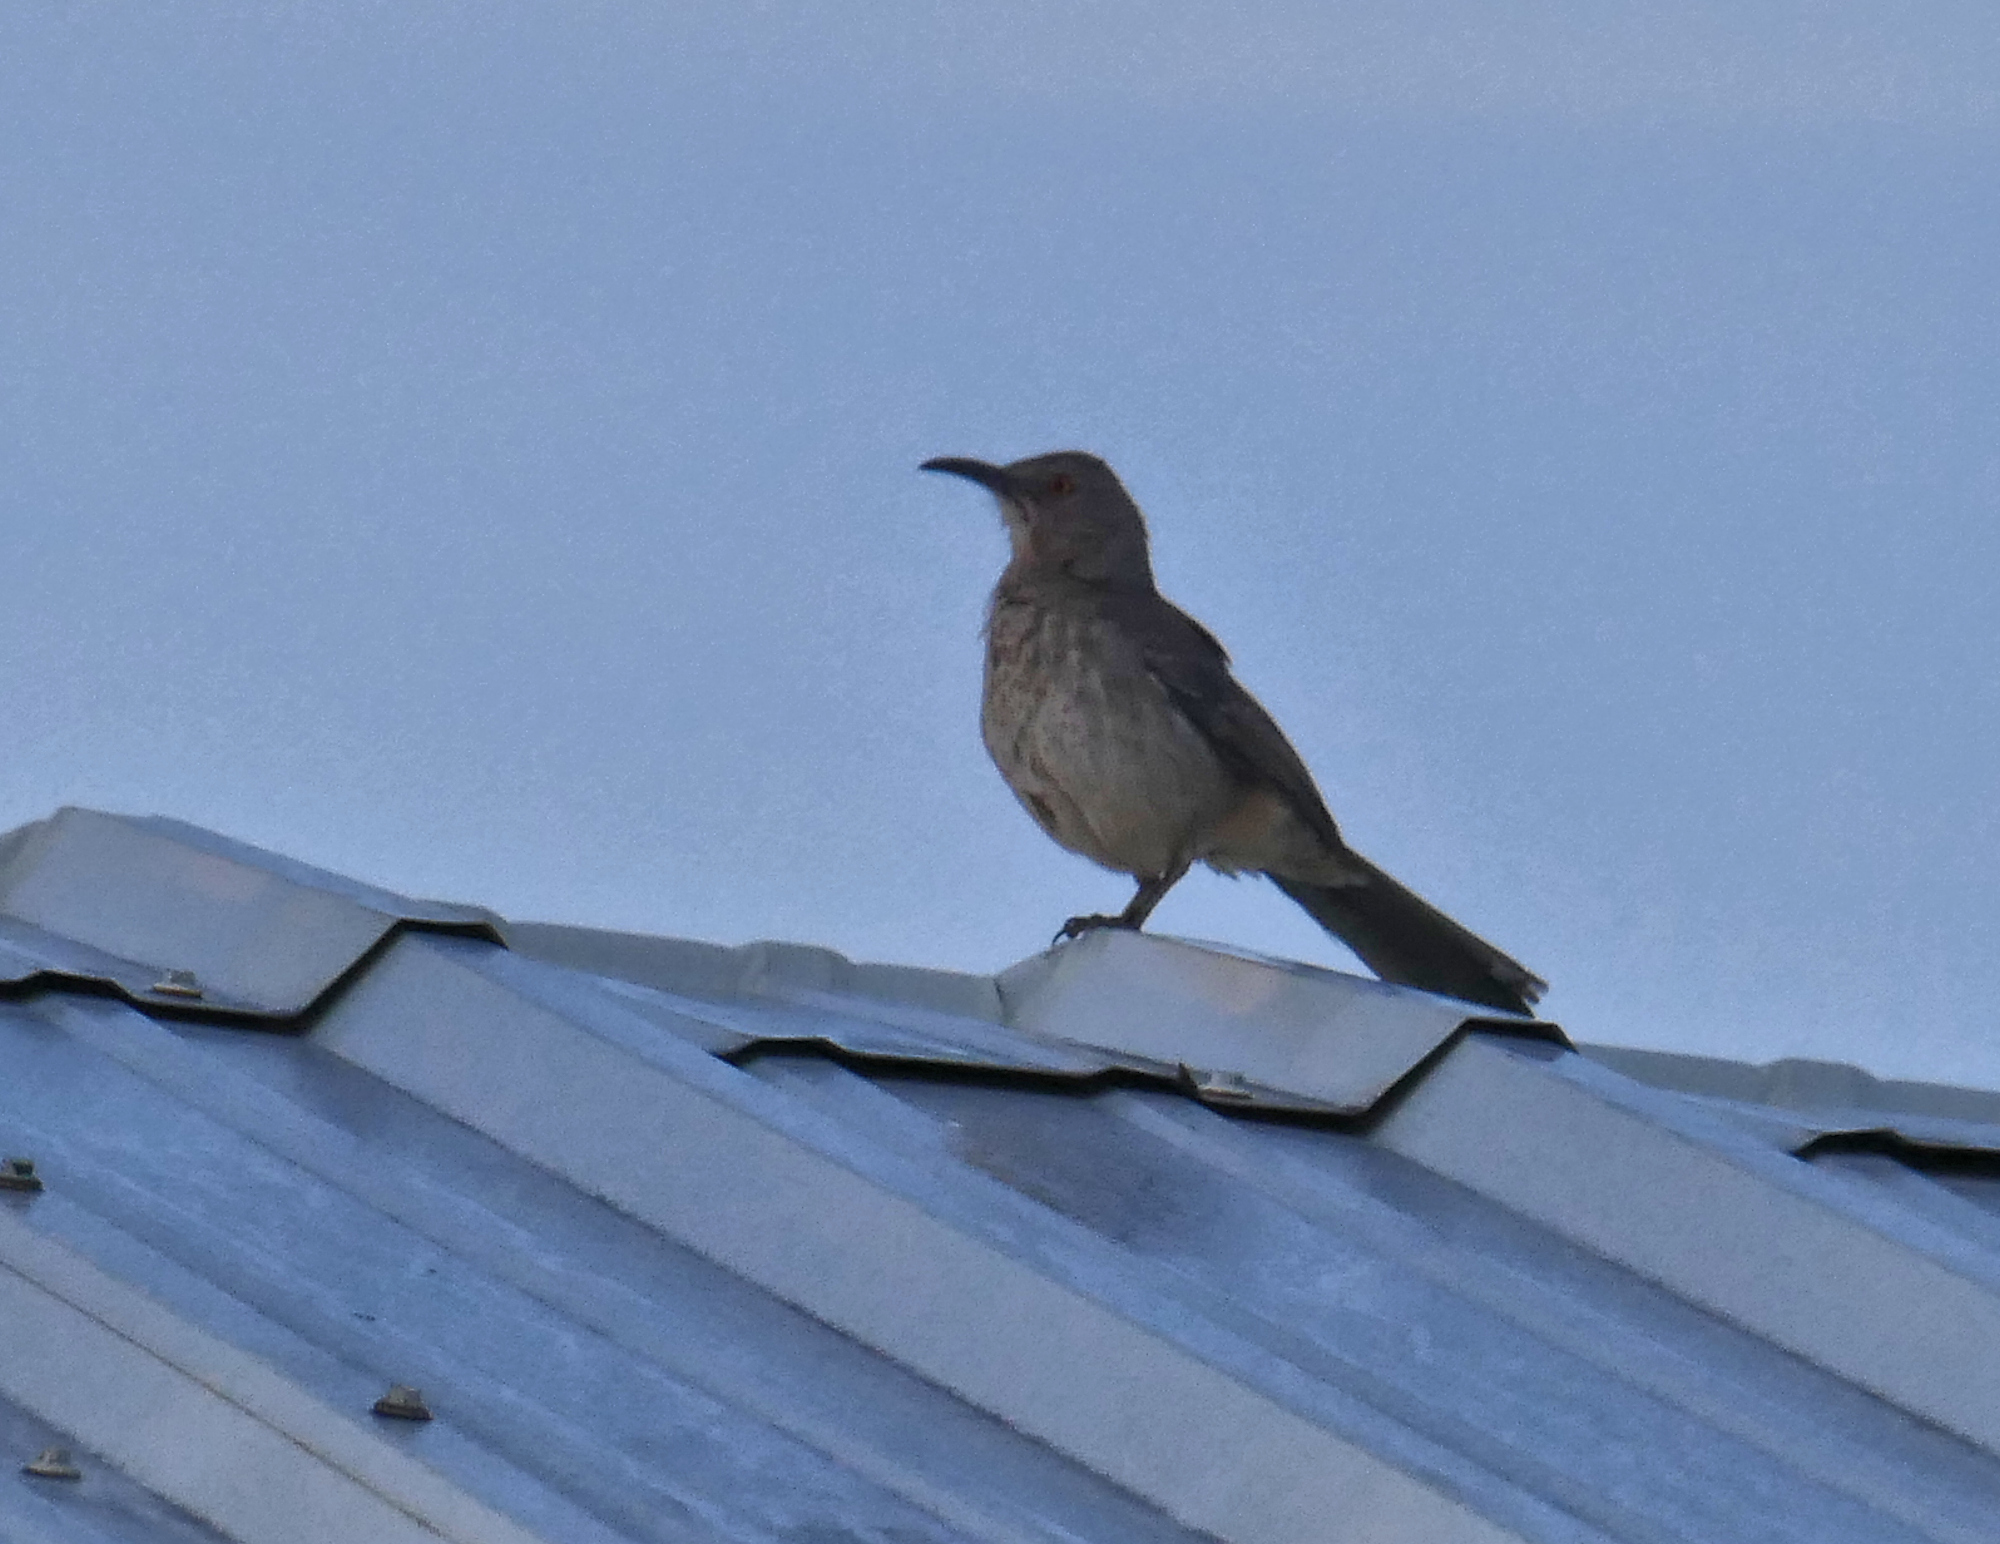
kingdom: Animalia
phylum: Chordata
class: Aves
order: Passeriformes
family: Mimidae
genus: Toxostoma
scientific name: Toxostoma curvirostre
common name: Curve-billed thrasher
